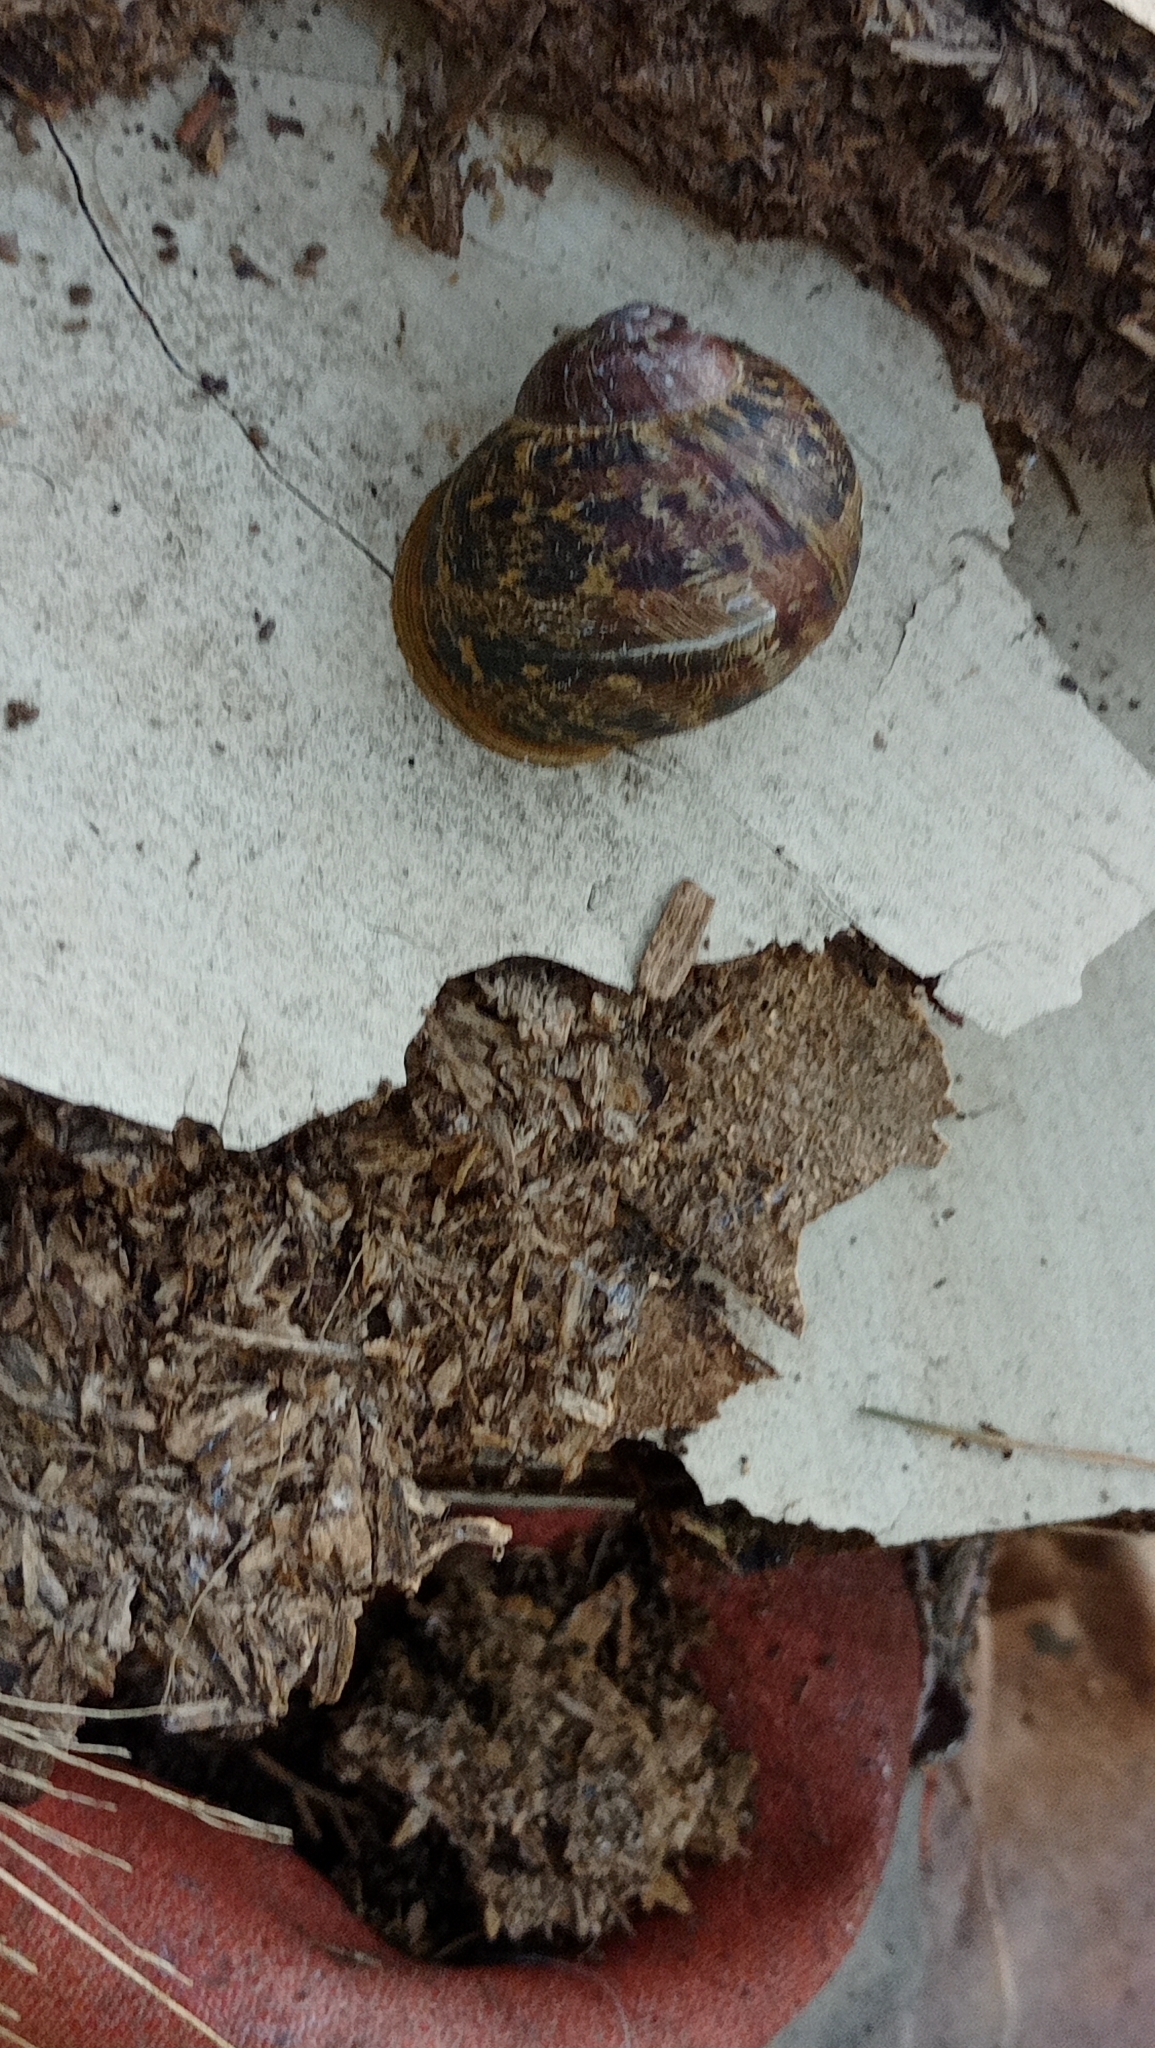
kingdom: Animalia
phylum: Mollusca
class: Gastropoda
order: Stylommatophora
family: Helicidae
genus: Cornu
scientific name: Cornu aspersum
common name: Brown garden snail
